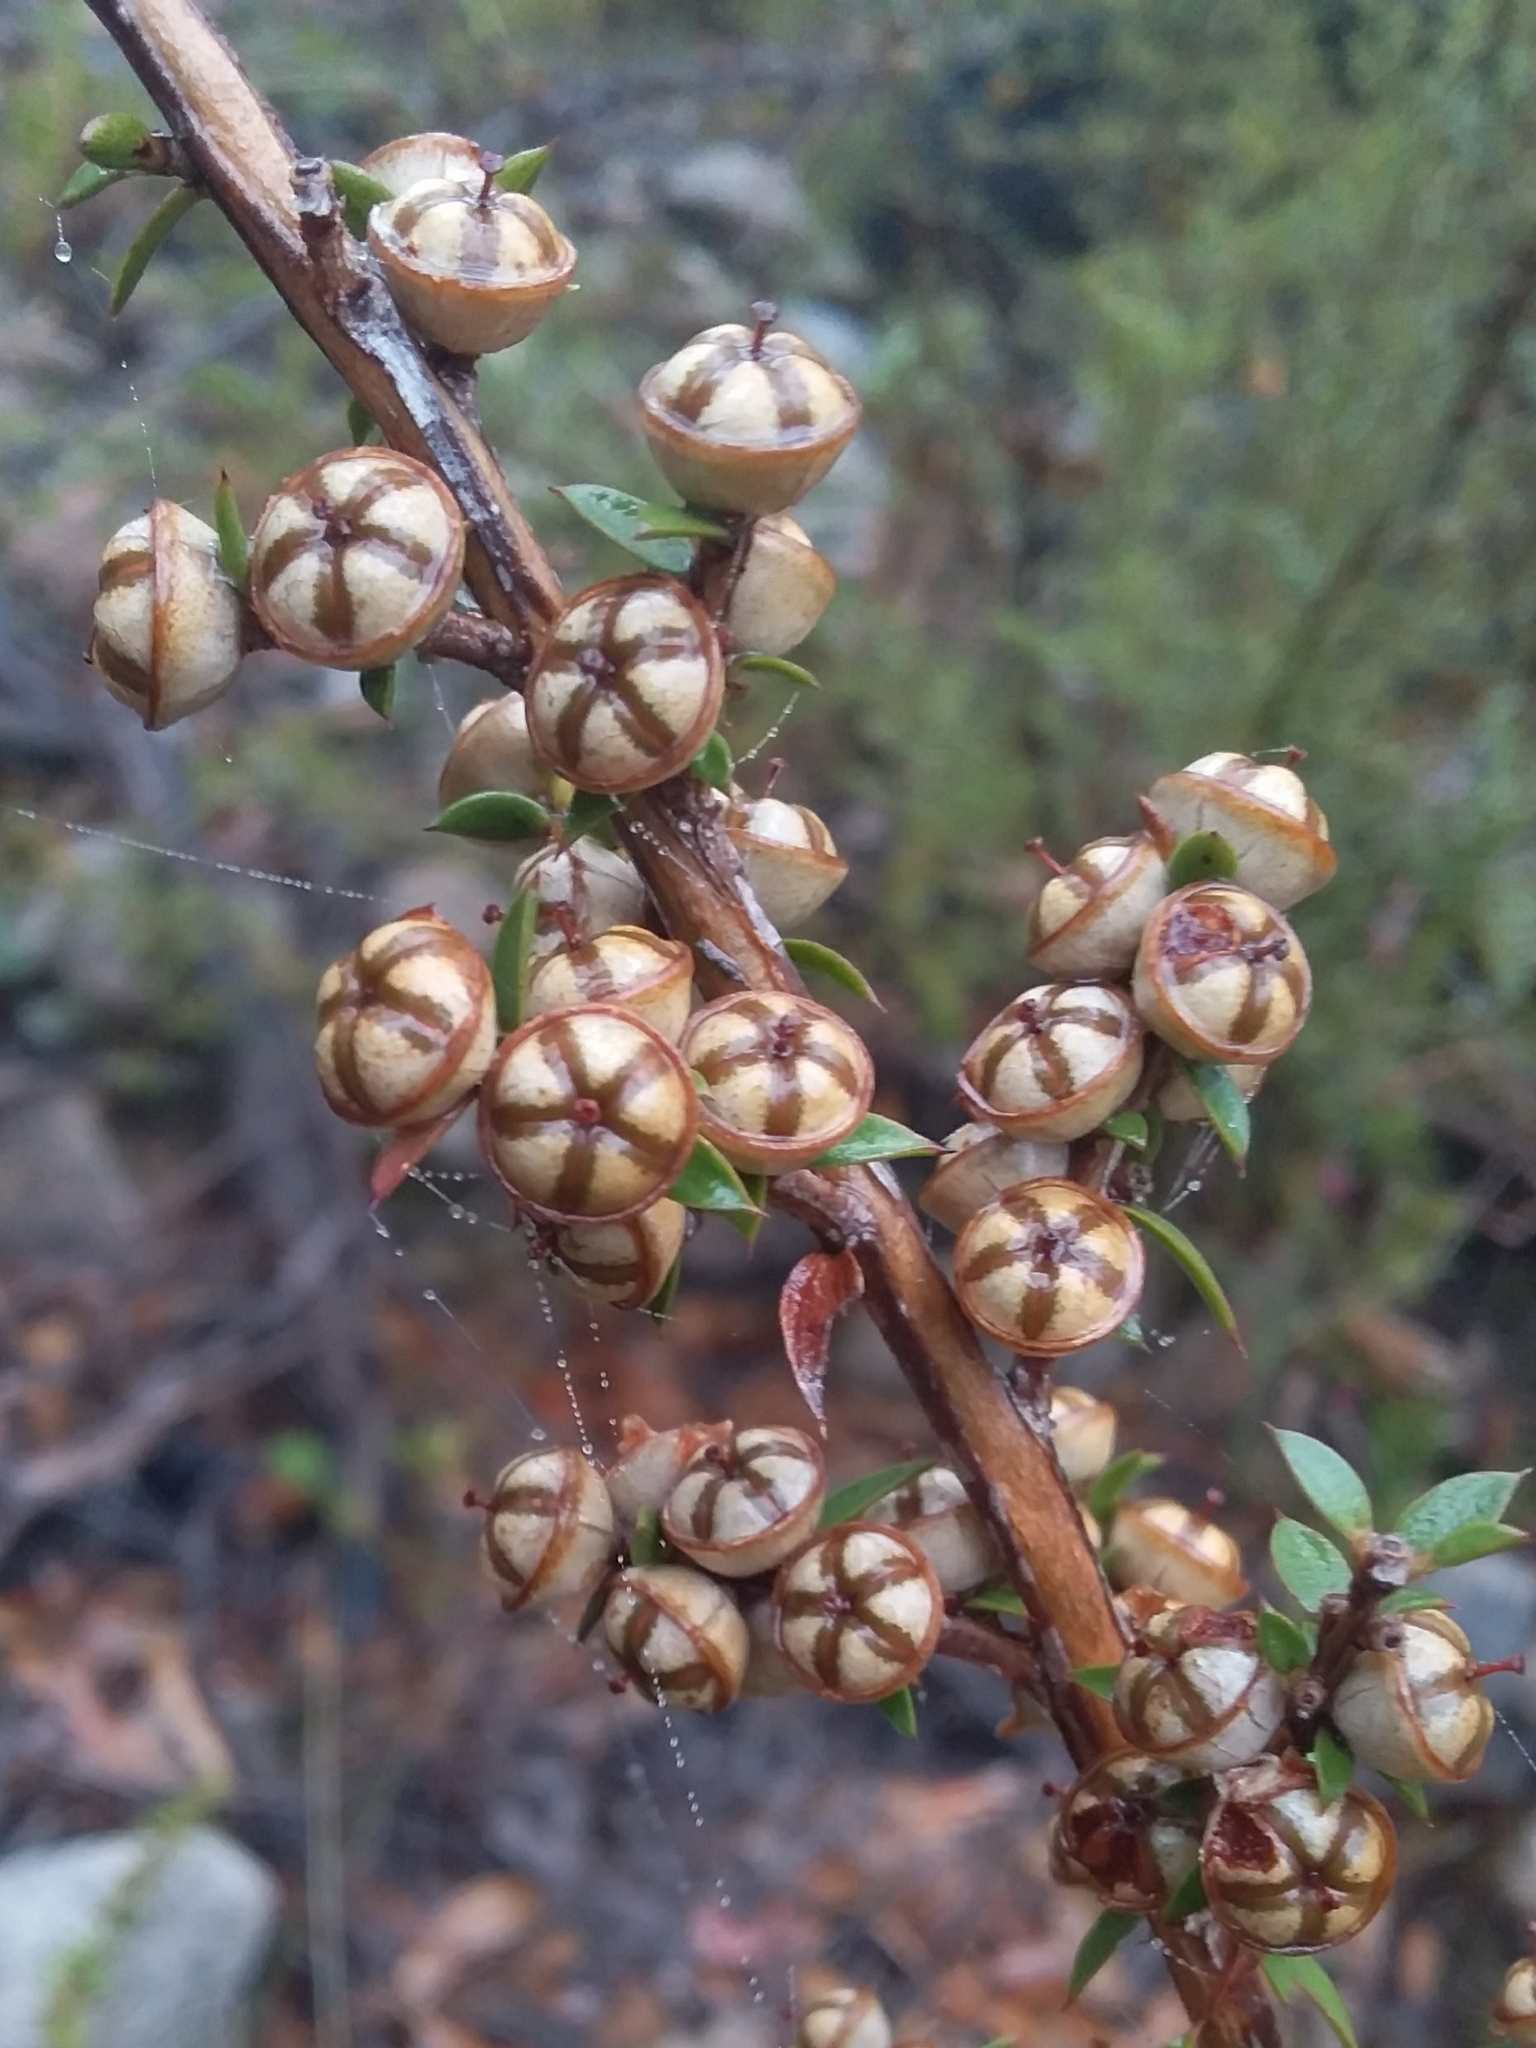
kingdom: Plantae
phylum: Tracheophyta
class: Magnoliopsida
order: Myrtales
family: Myrtaceae
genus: Leptospermum
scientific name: Leptospermum continentale
